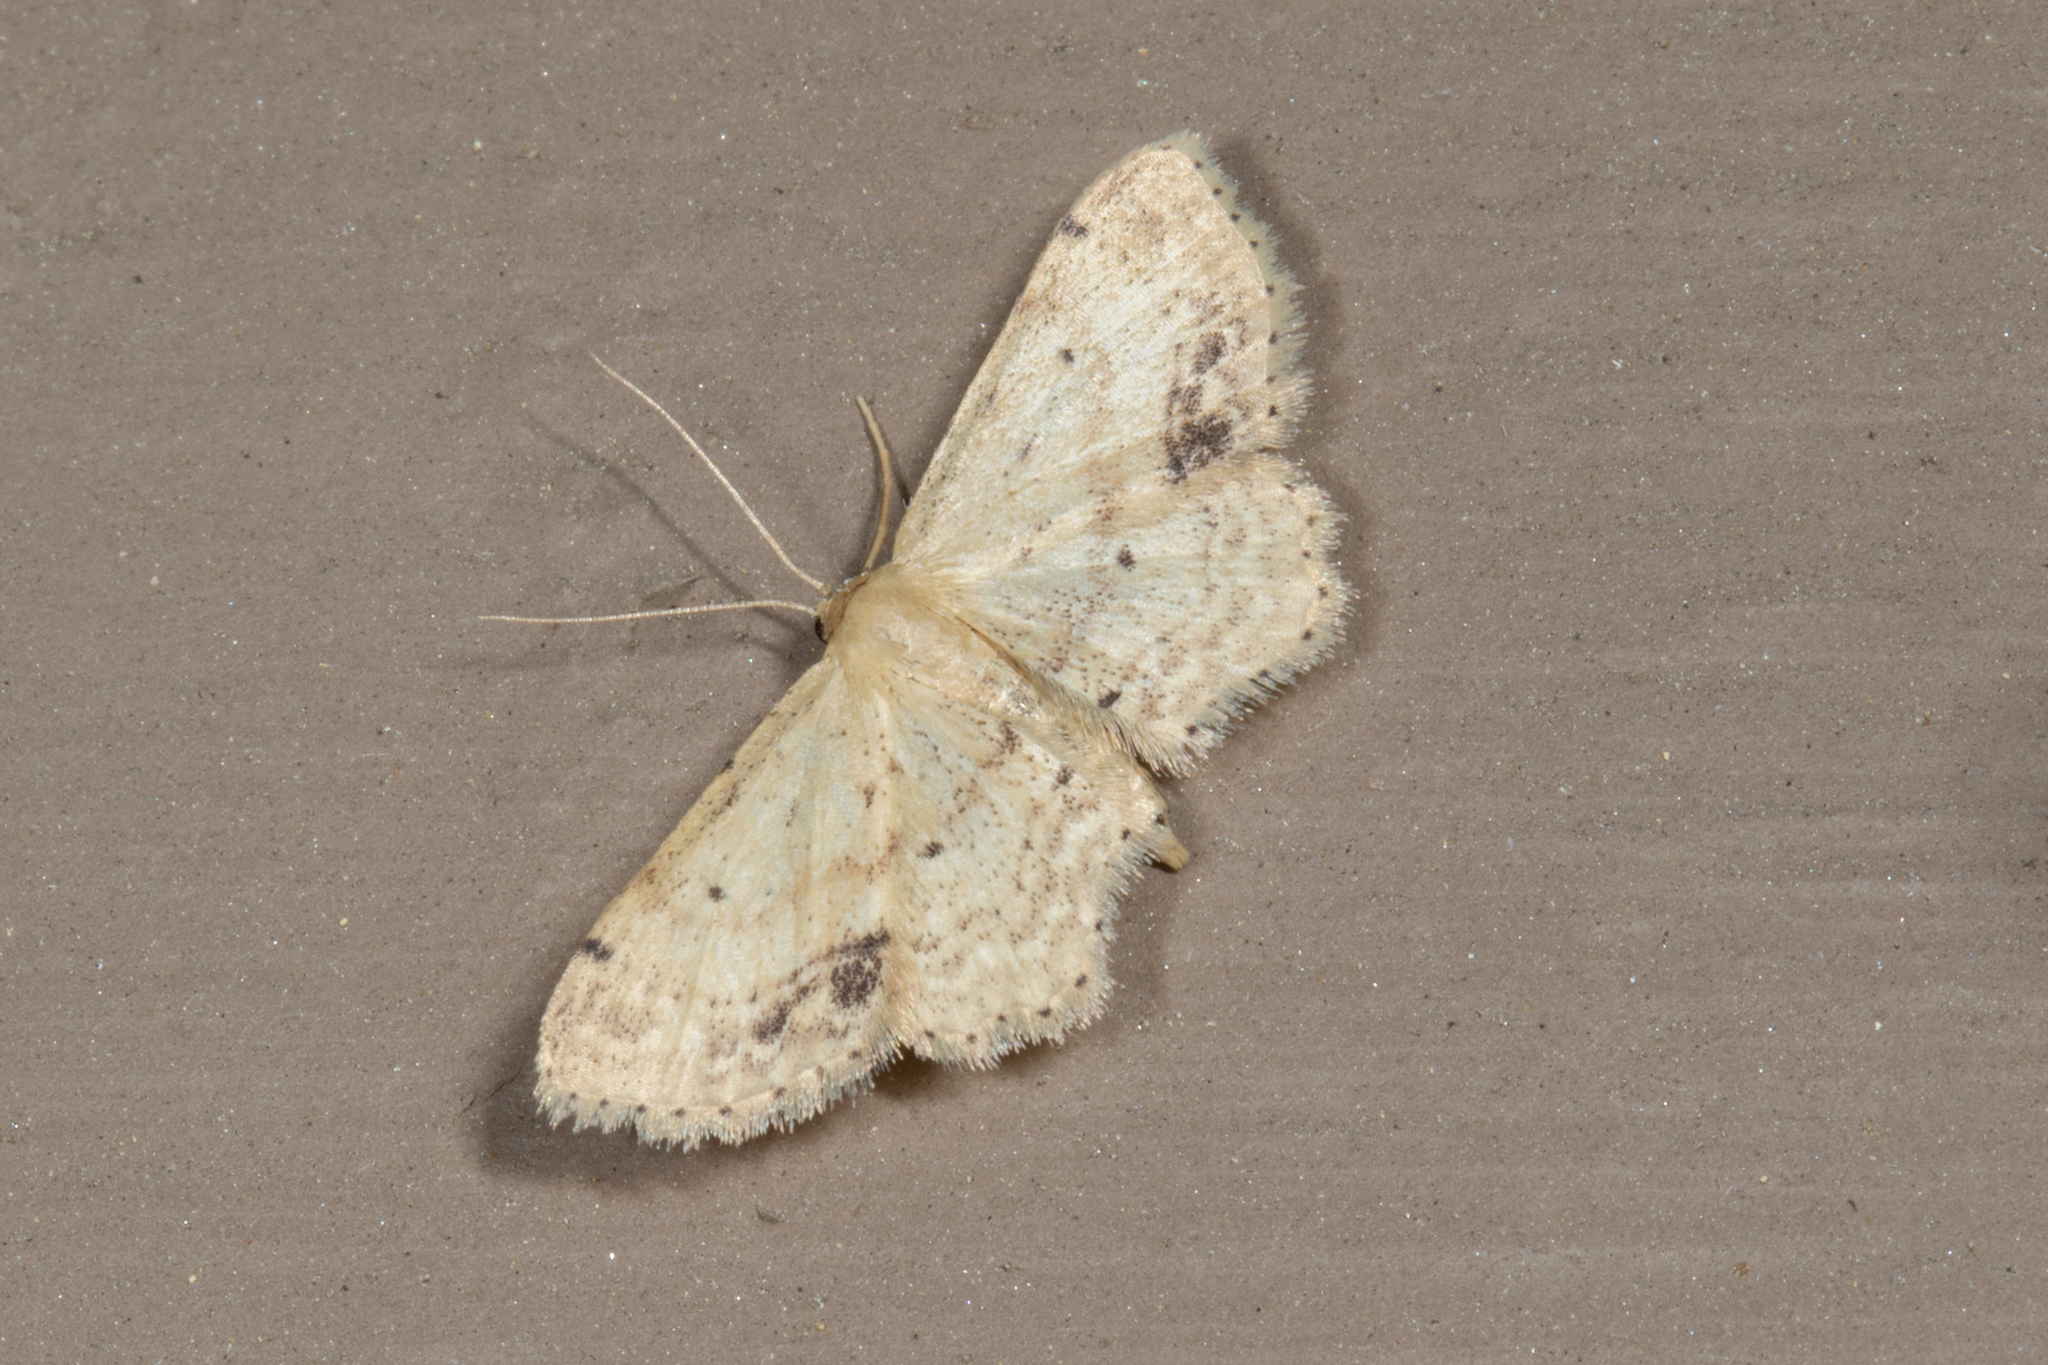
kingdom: Animalia
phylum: Arthropoda
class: Insecta
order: Lepidoptera
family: Geometridae
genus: Idaea
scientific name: Idaea dimidiata
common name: Single-dotted wave
